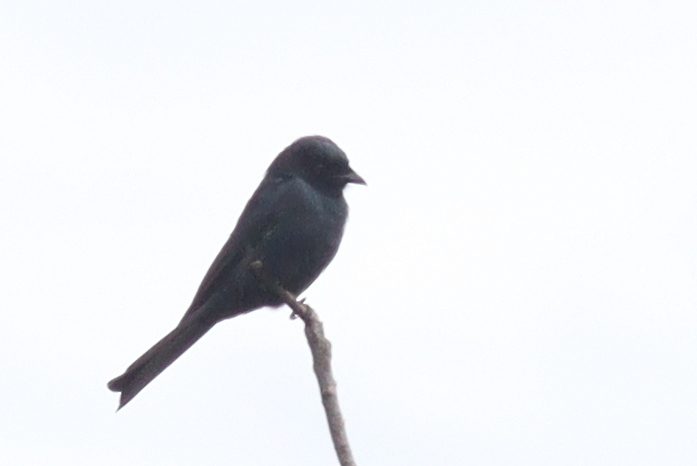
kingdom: Animalia
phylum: Chordata
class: Aves
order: Passeriformes
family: Dicruridae
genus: Dicrurus
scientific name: Dicrurus adsimilis
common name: Fork-tailed drongo
